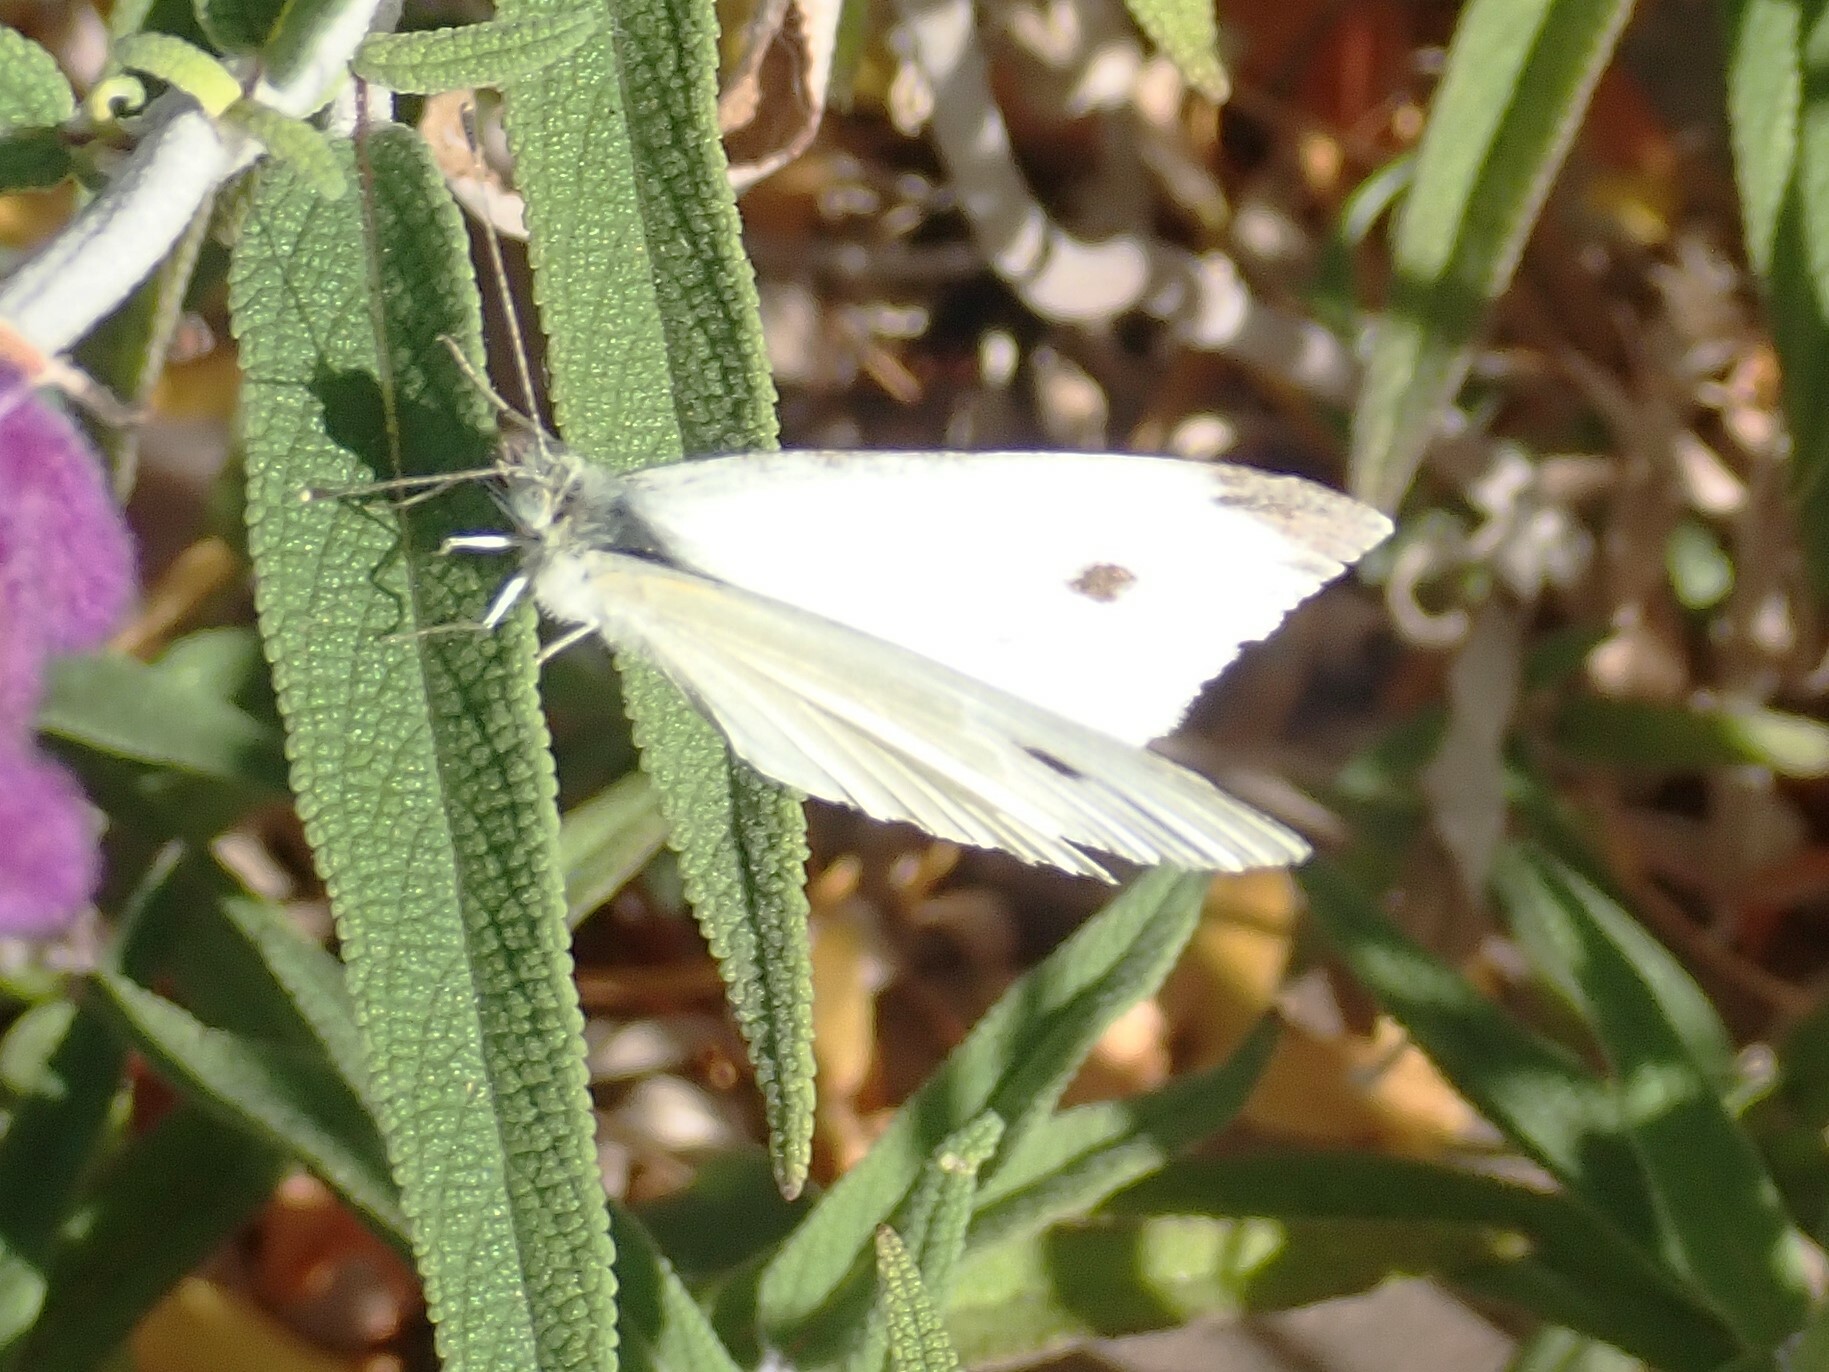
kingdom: Animalia
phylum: Arthropoda
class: Insecta
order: Lepidoptera
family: Pieridae
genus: Pieris
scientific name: Pieris rapae
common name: Small white
